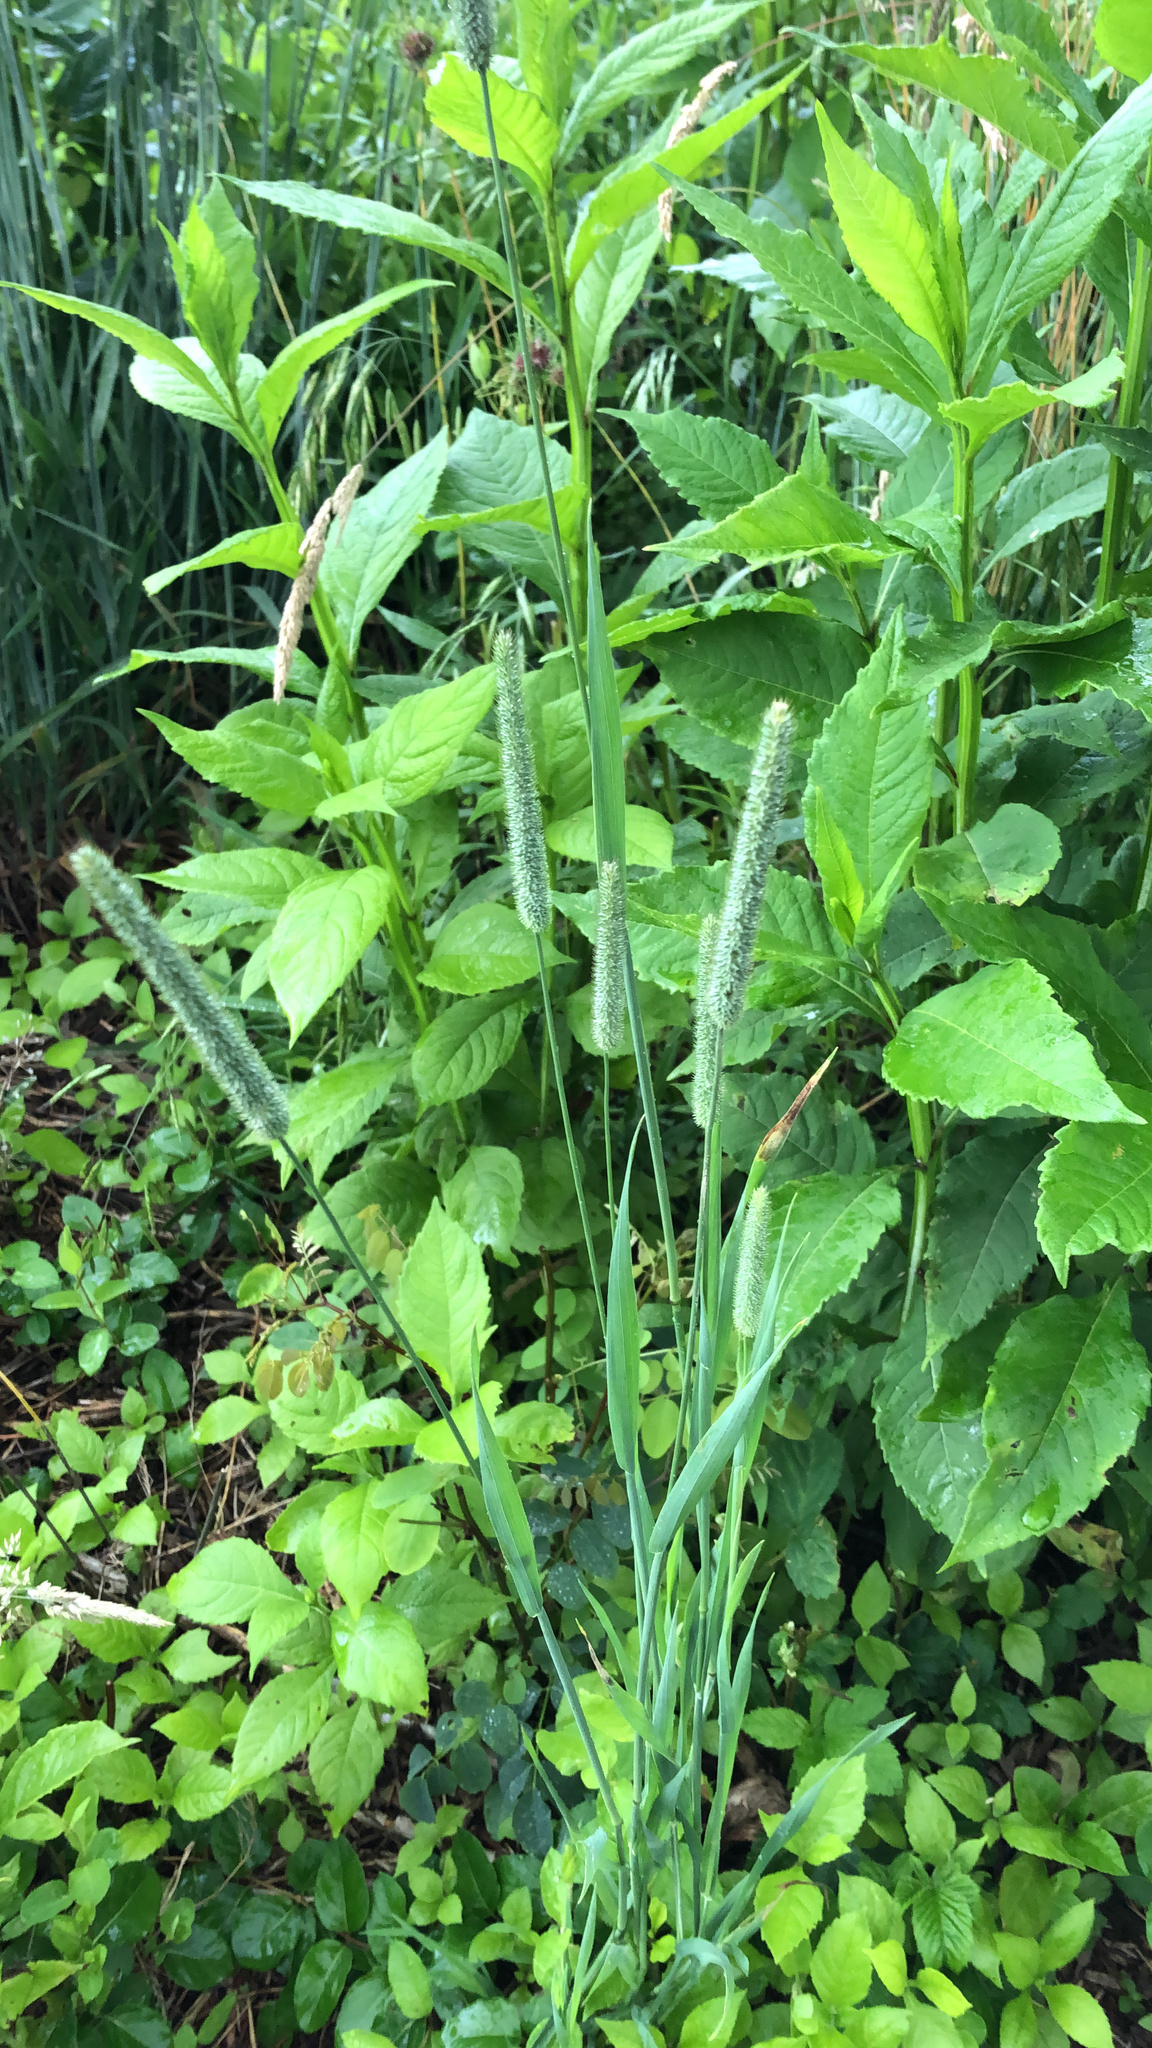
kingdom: Plantae
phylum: Tracheophyta
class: Liliopsida
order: Poales
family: Poaceae
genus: Phleum
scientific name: Phleum pratense
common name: Timothy grass
